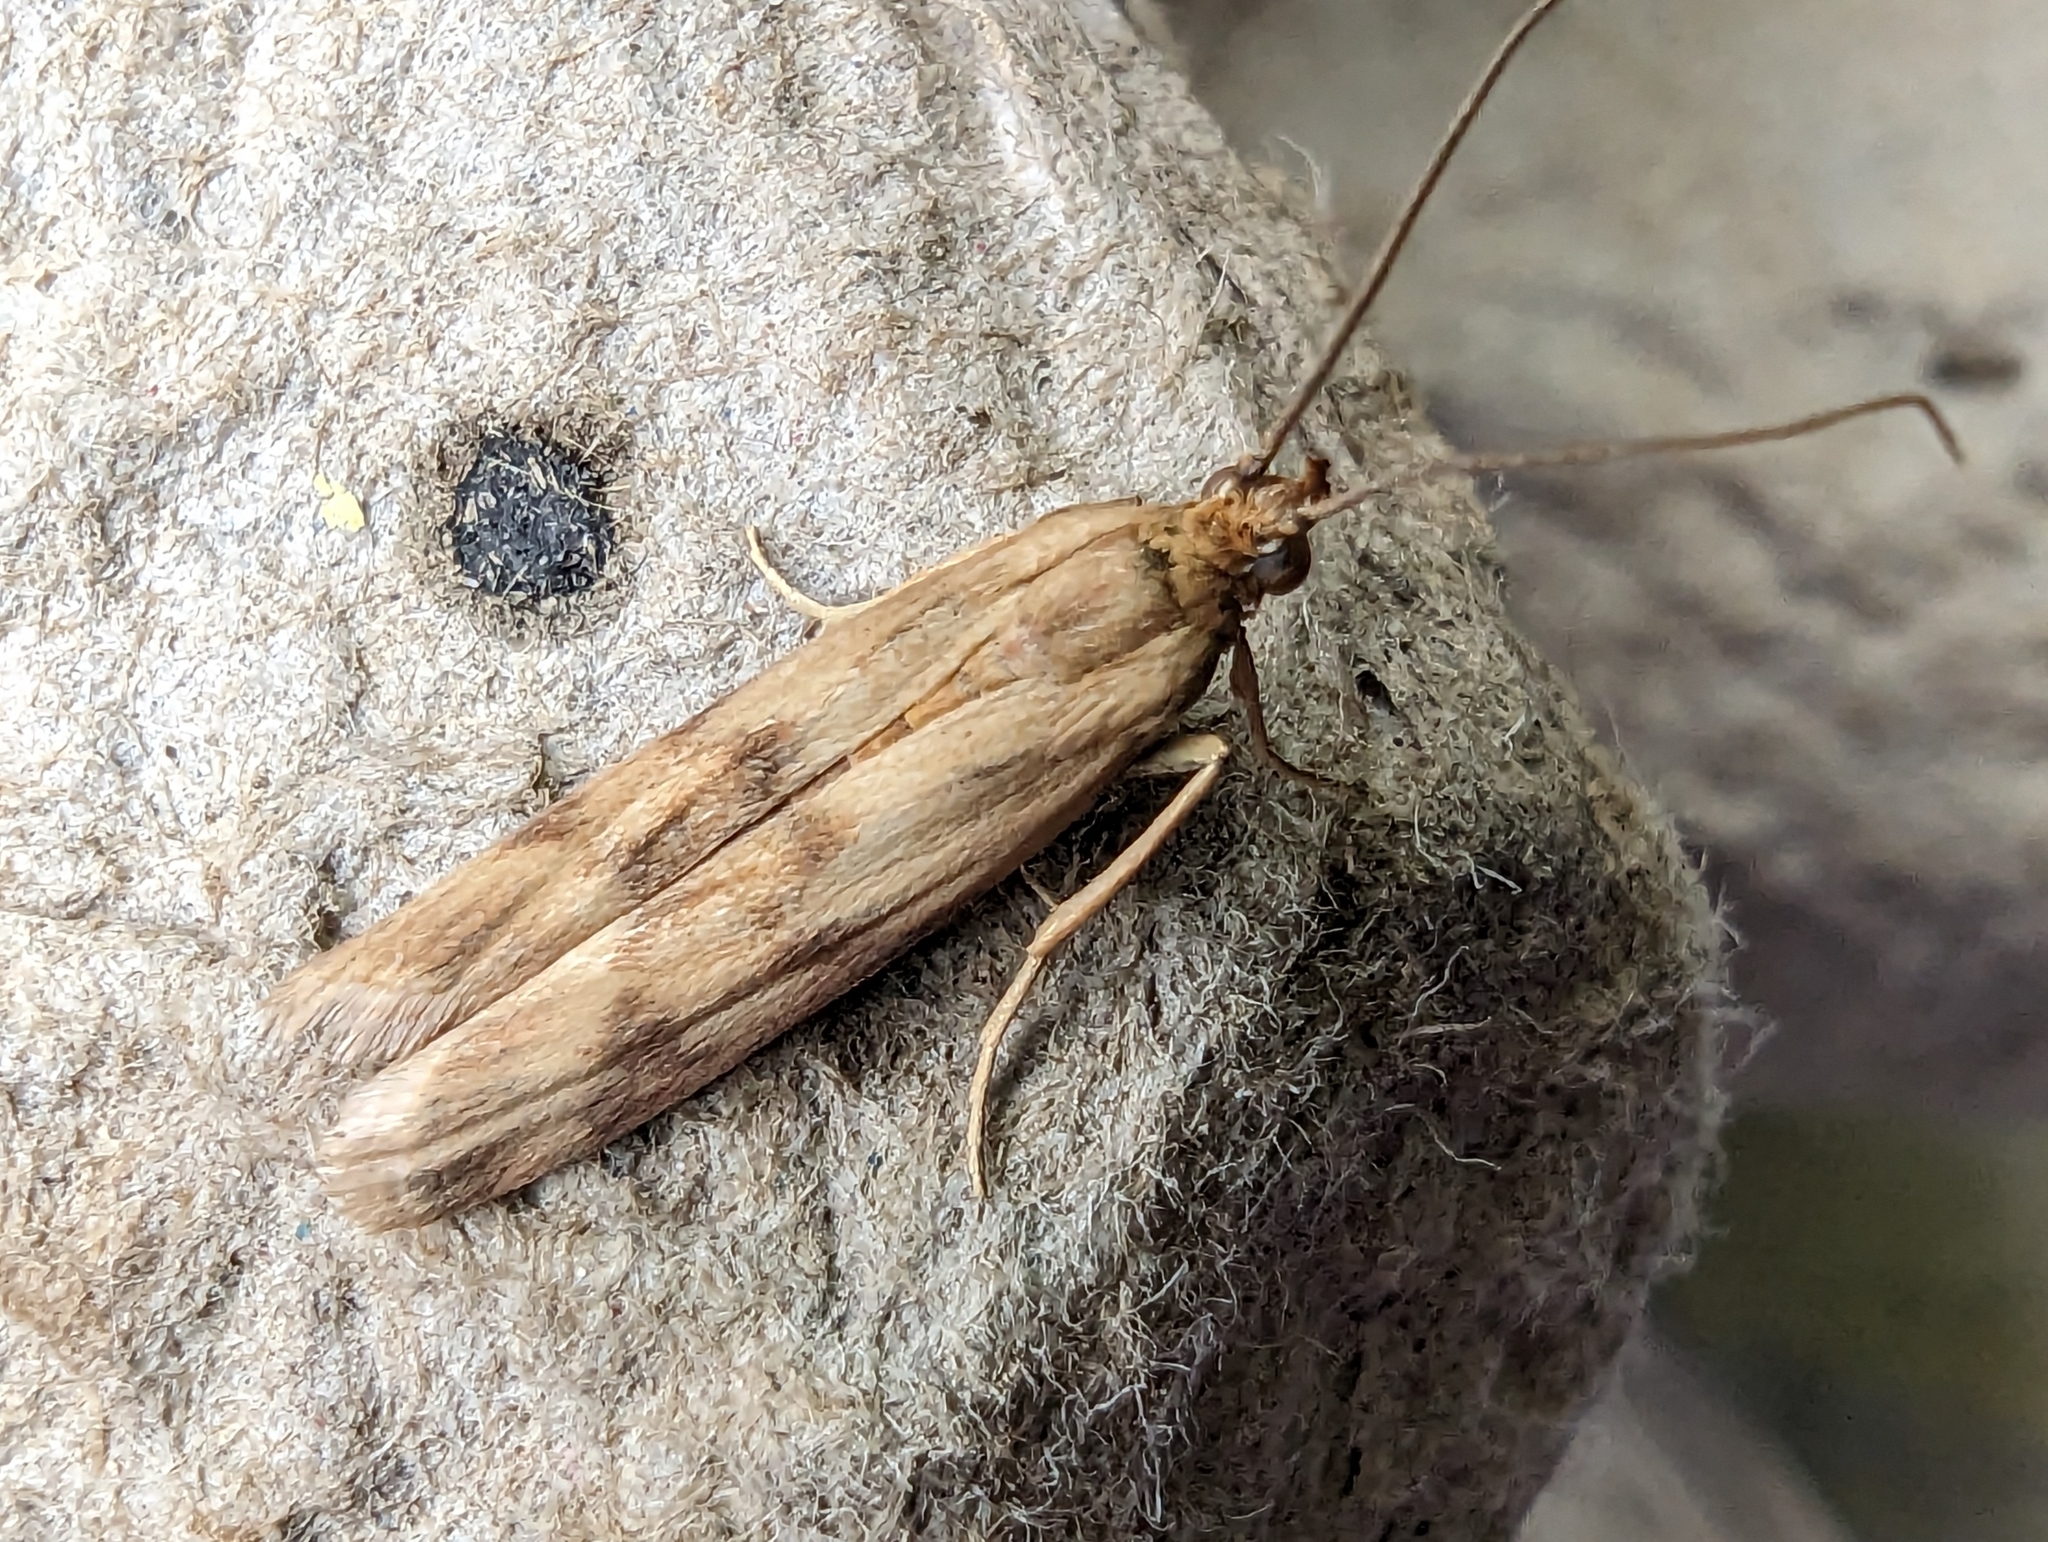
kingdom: Animalia
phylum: Arthropoda
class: Insecta
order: Lepidoptera
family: Pyralidae
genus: Homoeosoma
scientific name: Homoeosoma sinuella
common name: Twin-barred knot-horn
